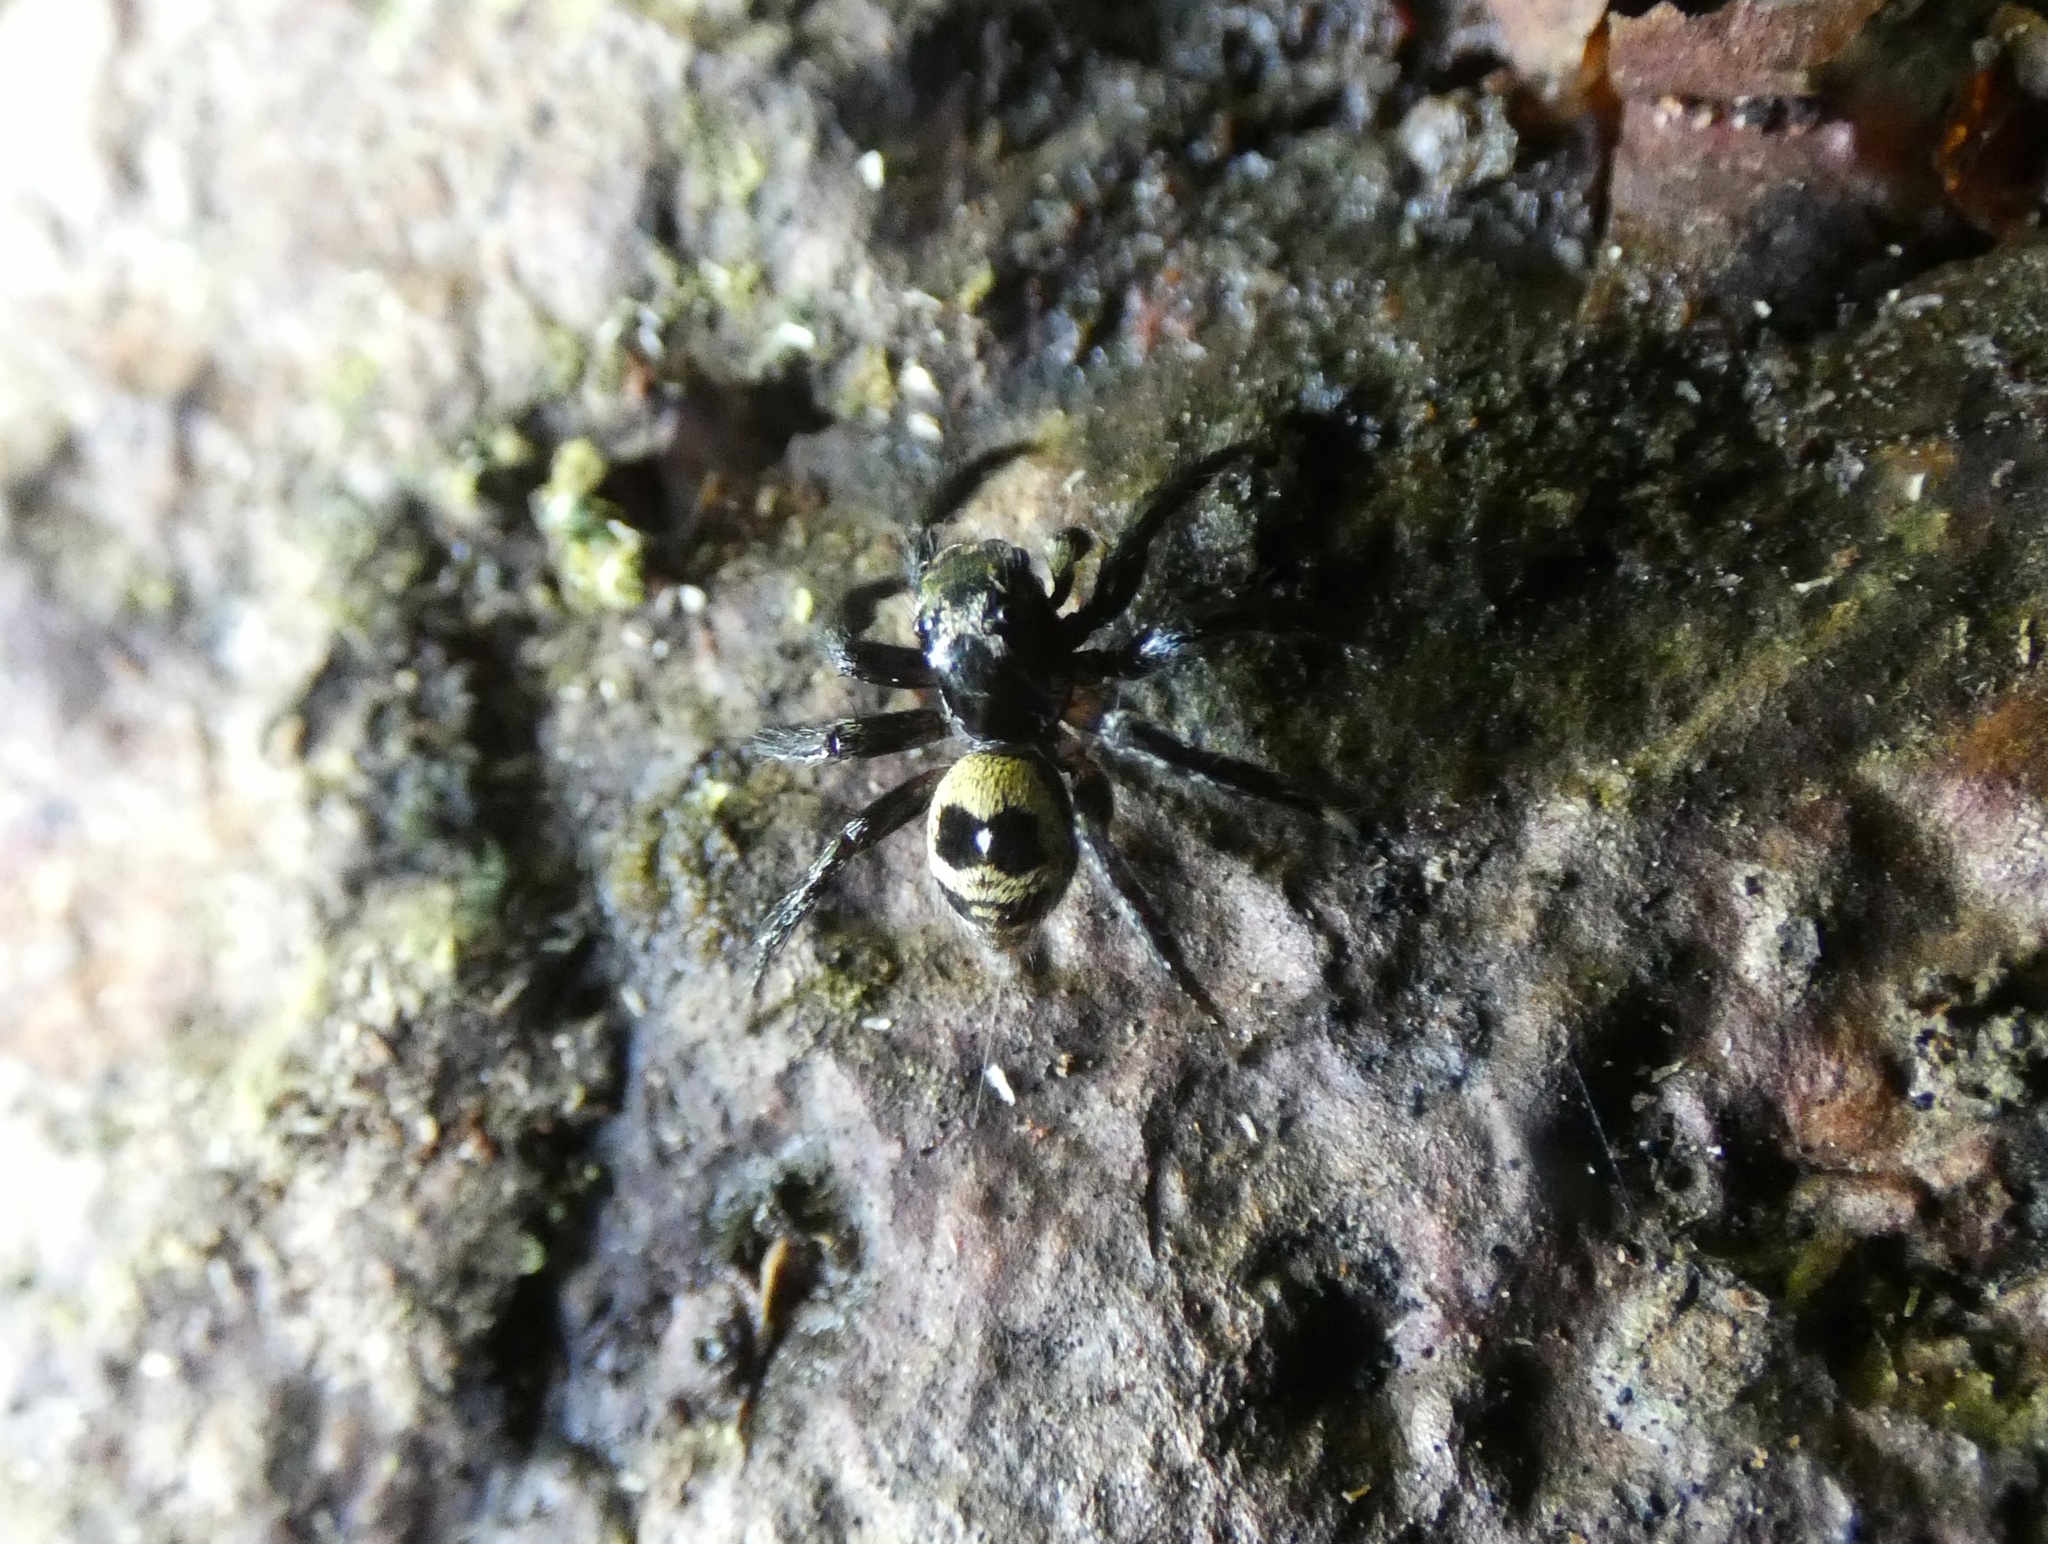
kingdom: Animalia
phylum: Arthropoda
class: Arachnida
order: Araneae
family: Salticidae
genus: Corythalia
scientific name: Corythalia bicincta
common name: Jumping spiders
